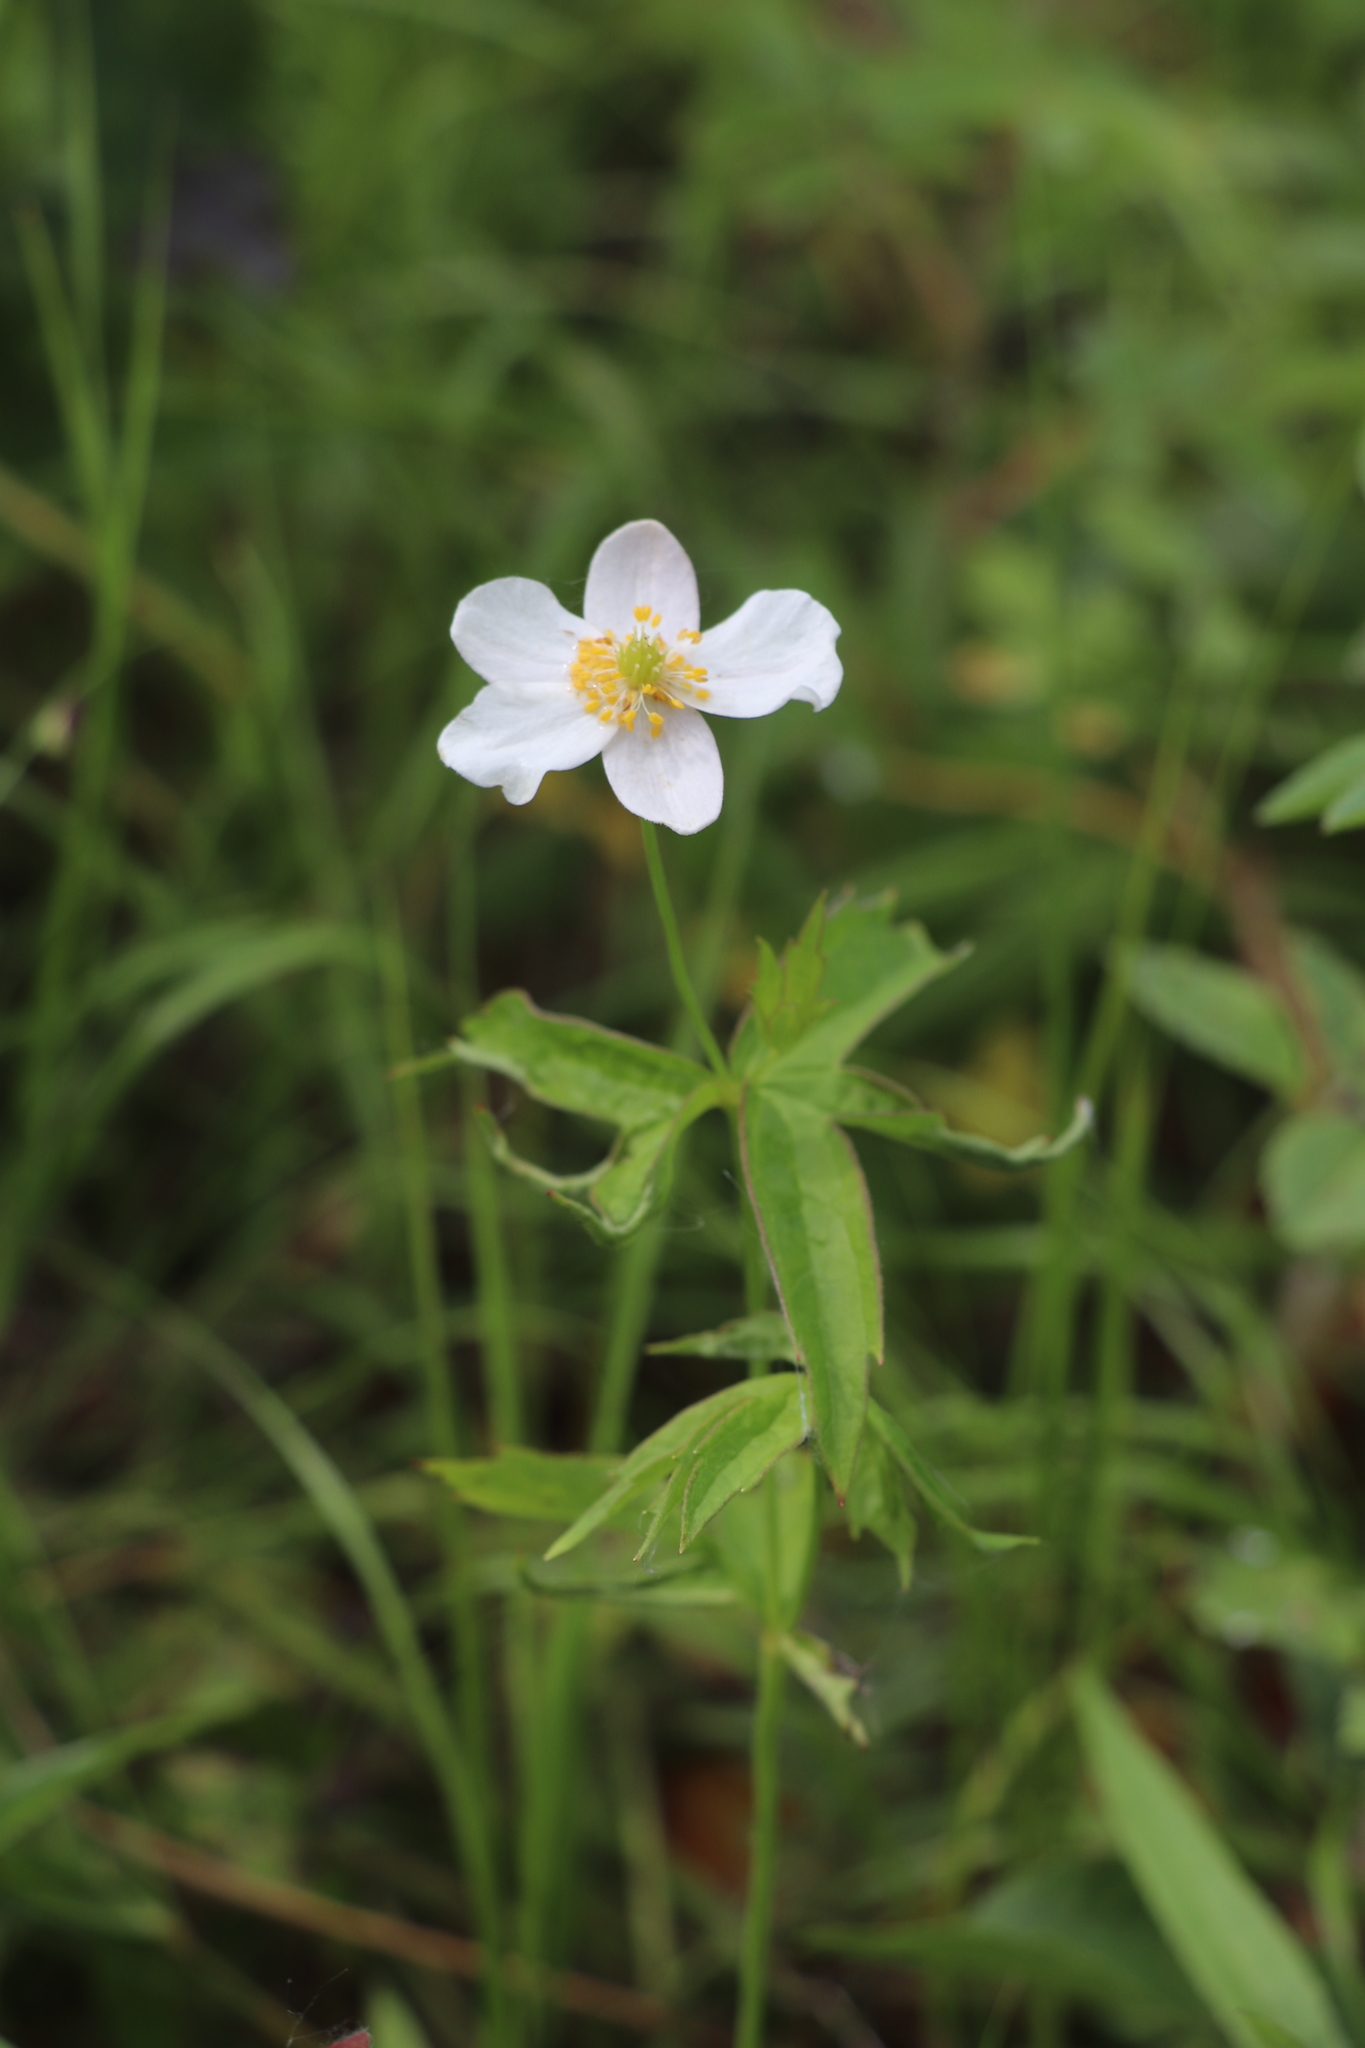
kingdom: Plantae
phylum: Tracheophyta
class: Magnoliopsida
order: Ranunculales
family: Ranunculaceae
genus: Anemonastrum
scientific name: Anemonastrum dichotomum
